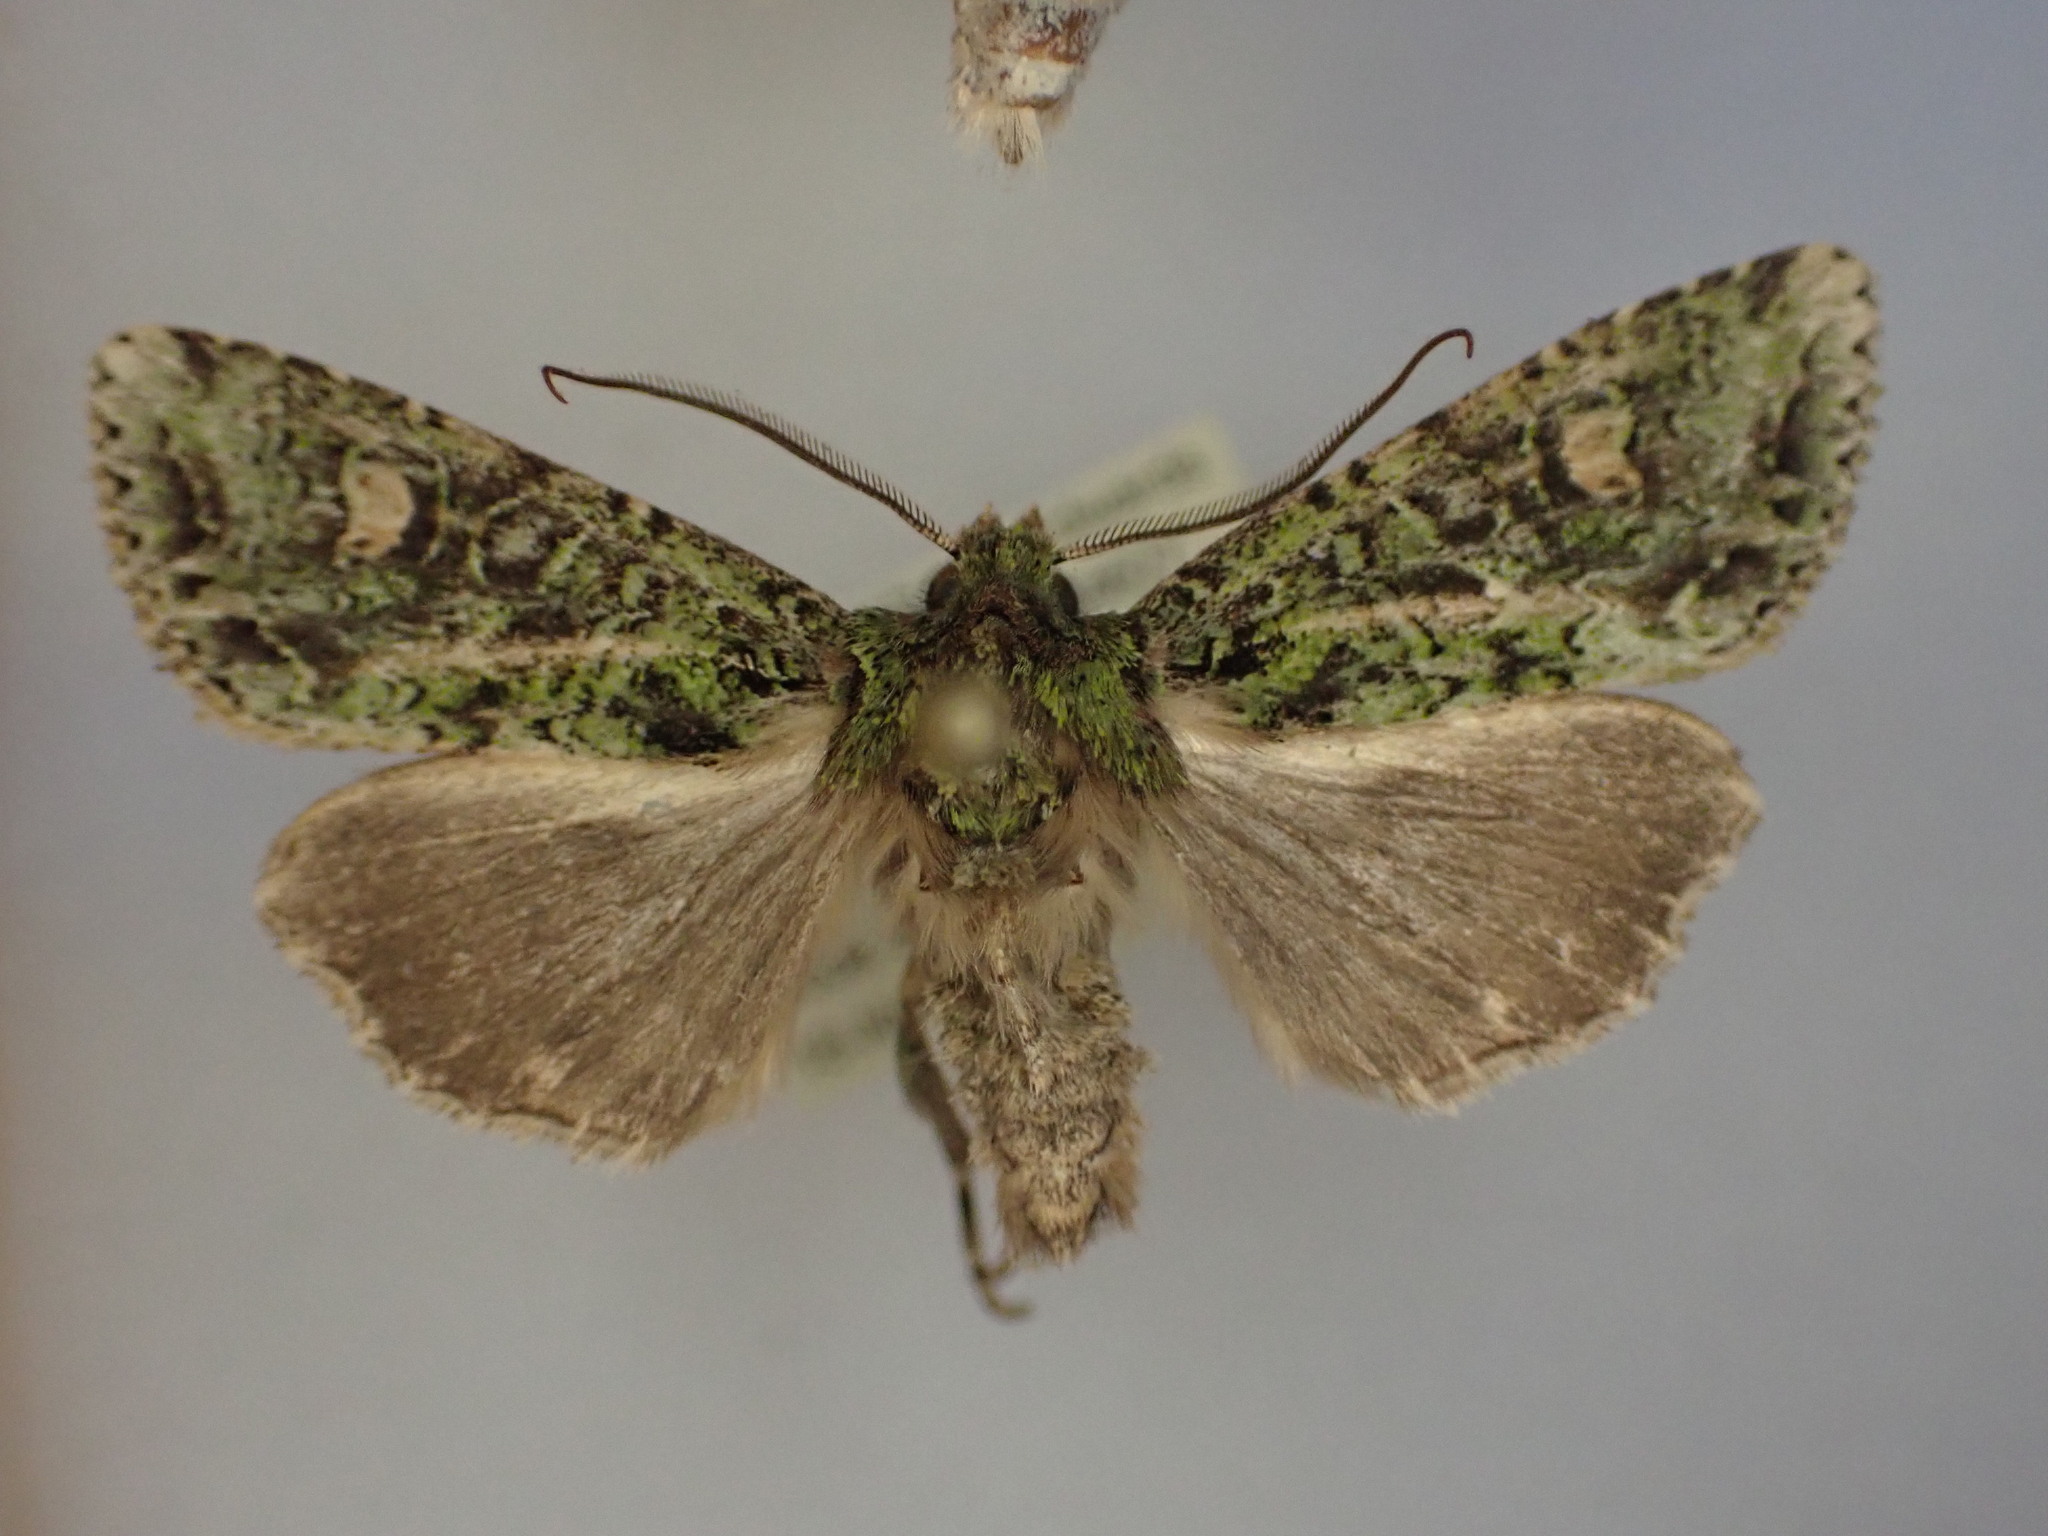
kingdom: Animalia
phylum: Arthropoda
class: Insecta
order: Lepidoptera
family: Noctuidae
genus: Ichneutica
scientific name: Ichneutica
